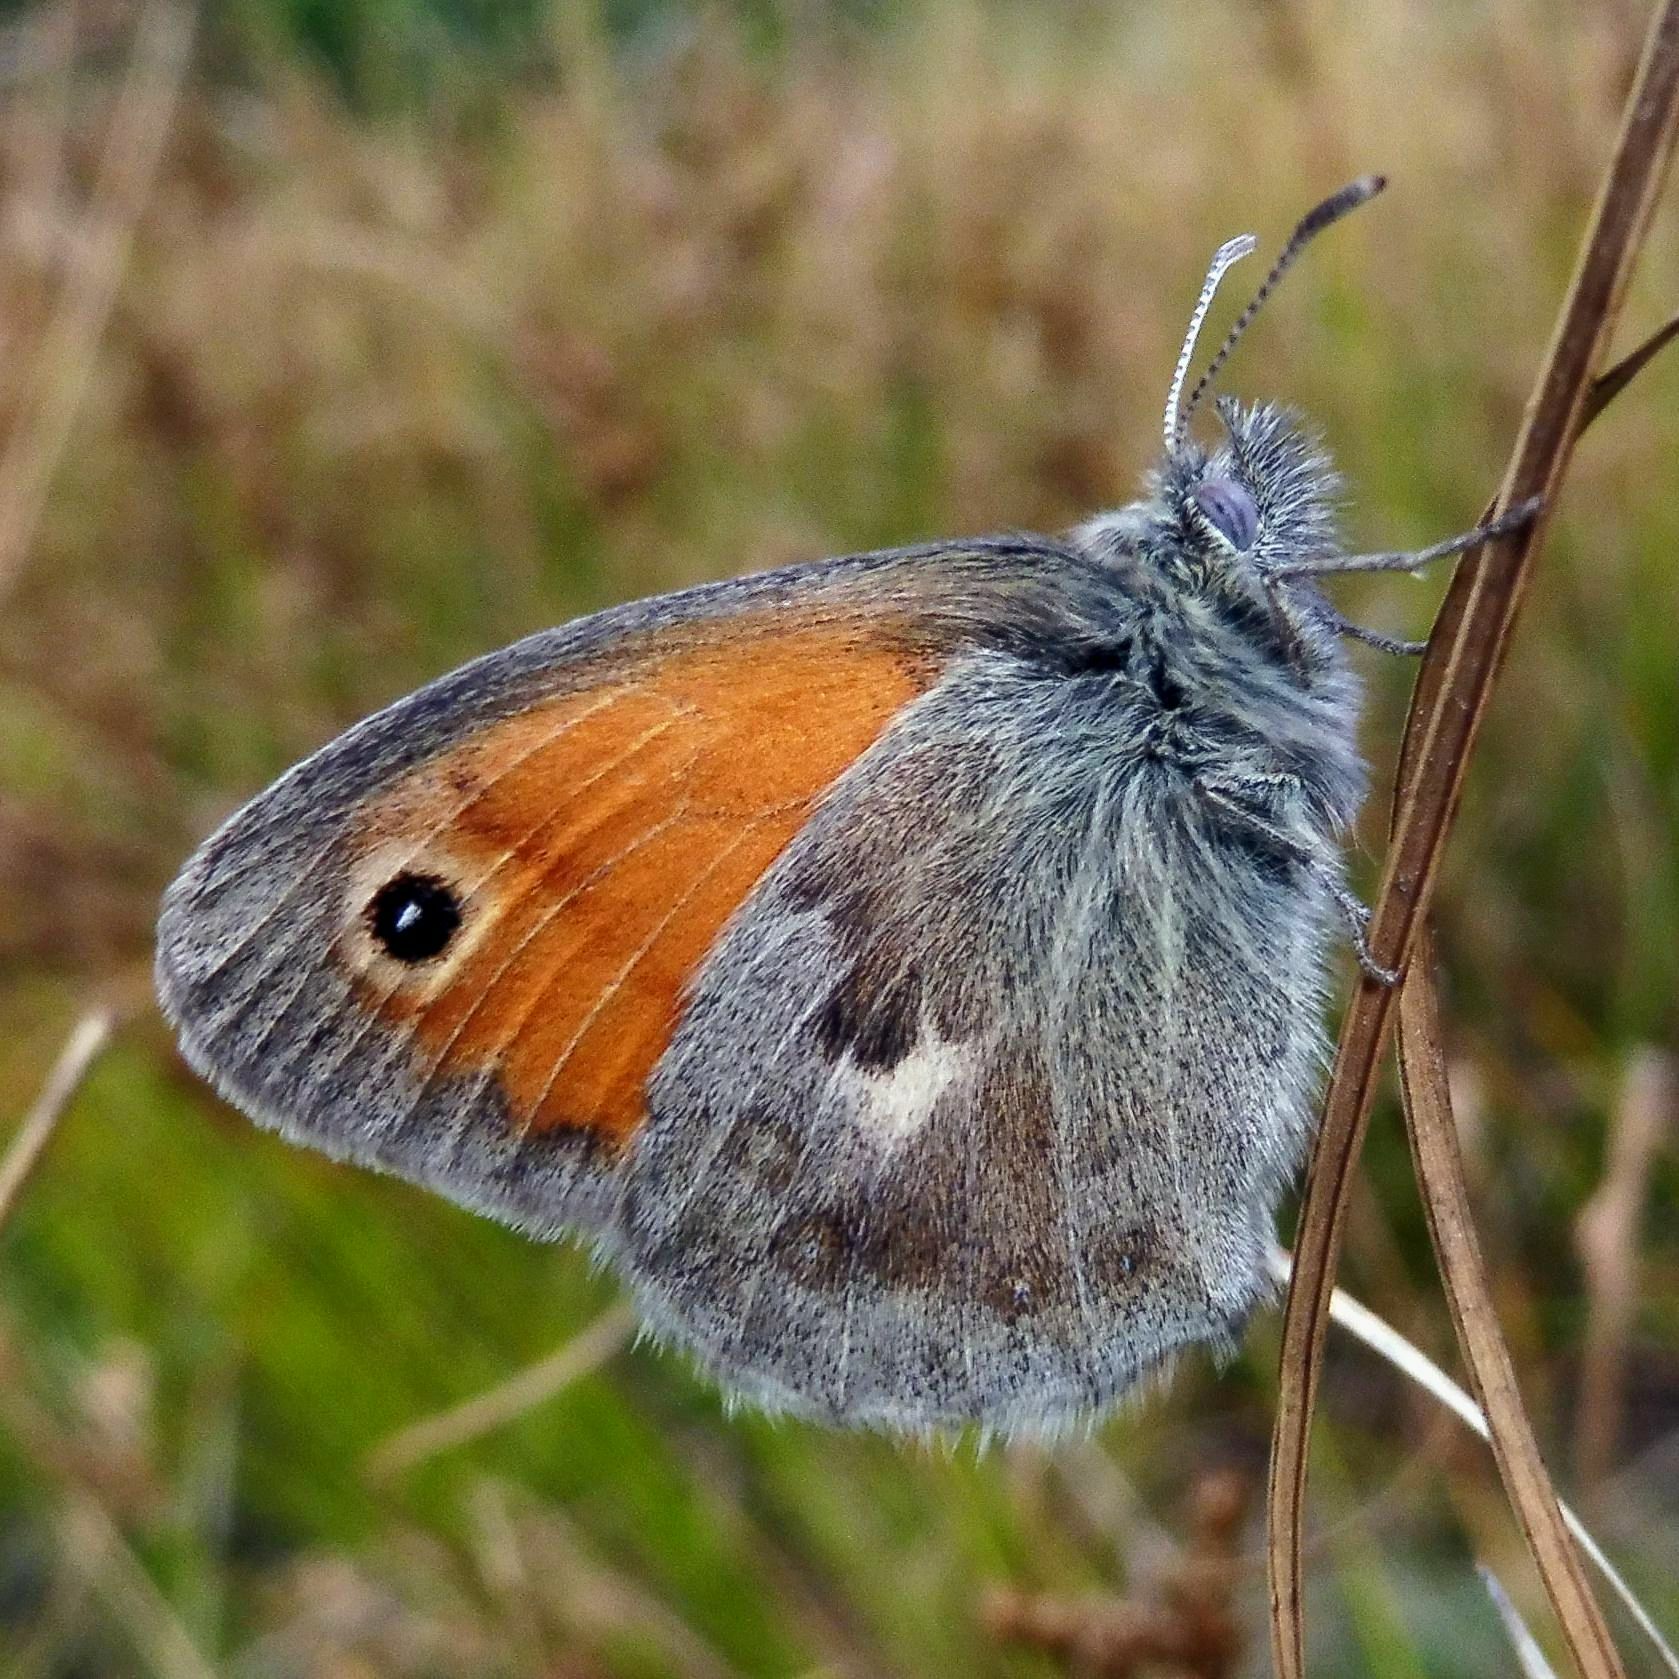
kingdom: Animalia
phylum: Arthropoda
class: Insecta
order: Lepidoptera
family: Nymphalidae
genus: Coenonympha
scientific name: Coenonympha pamphilus
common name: Small heath
